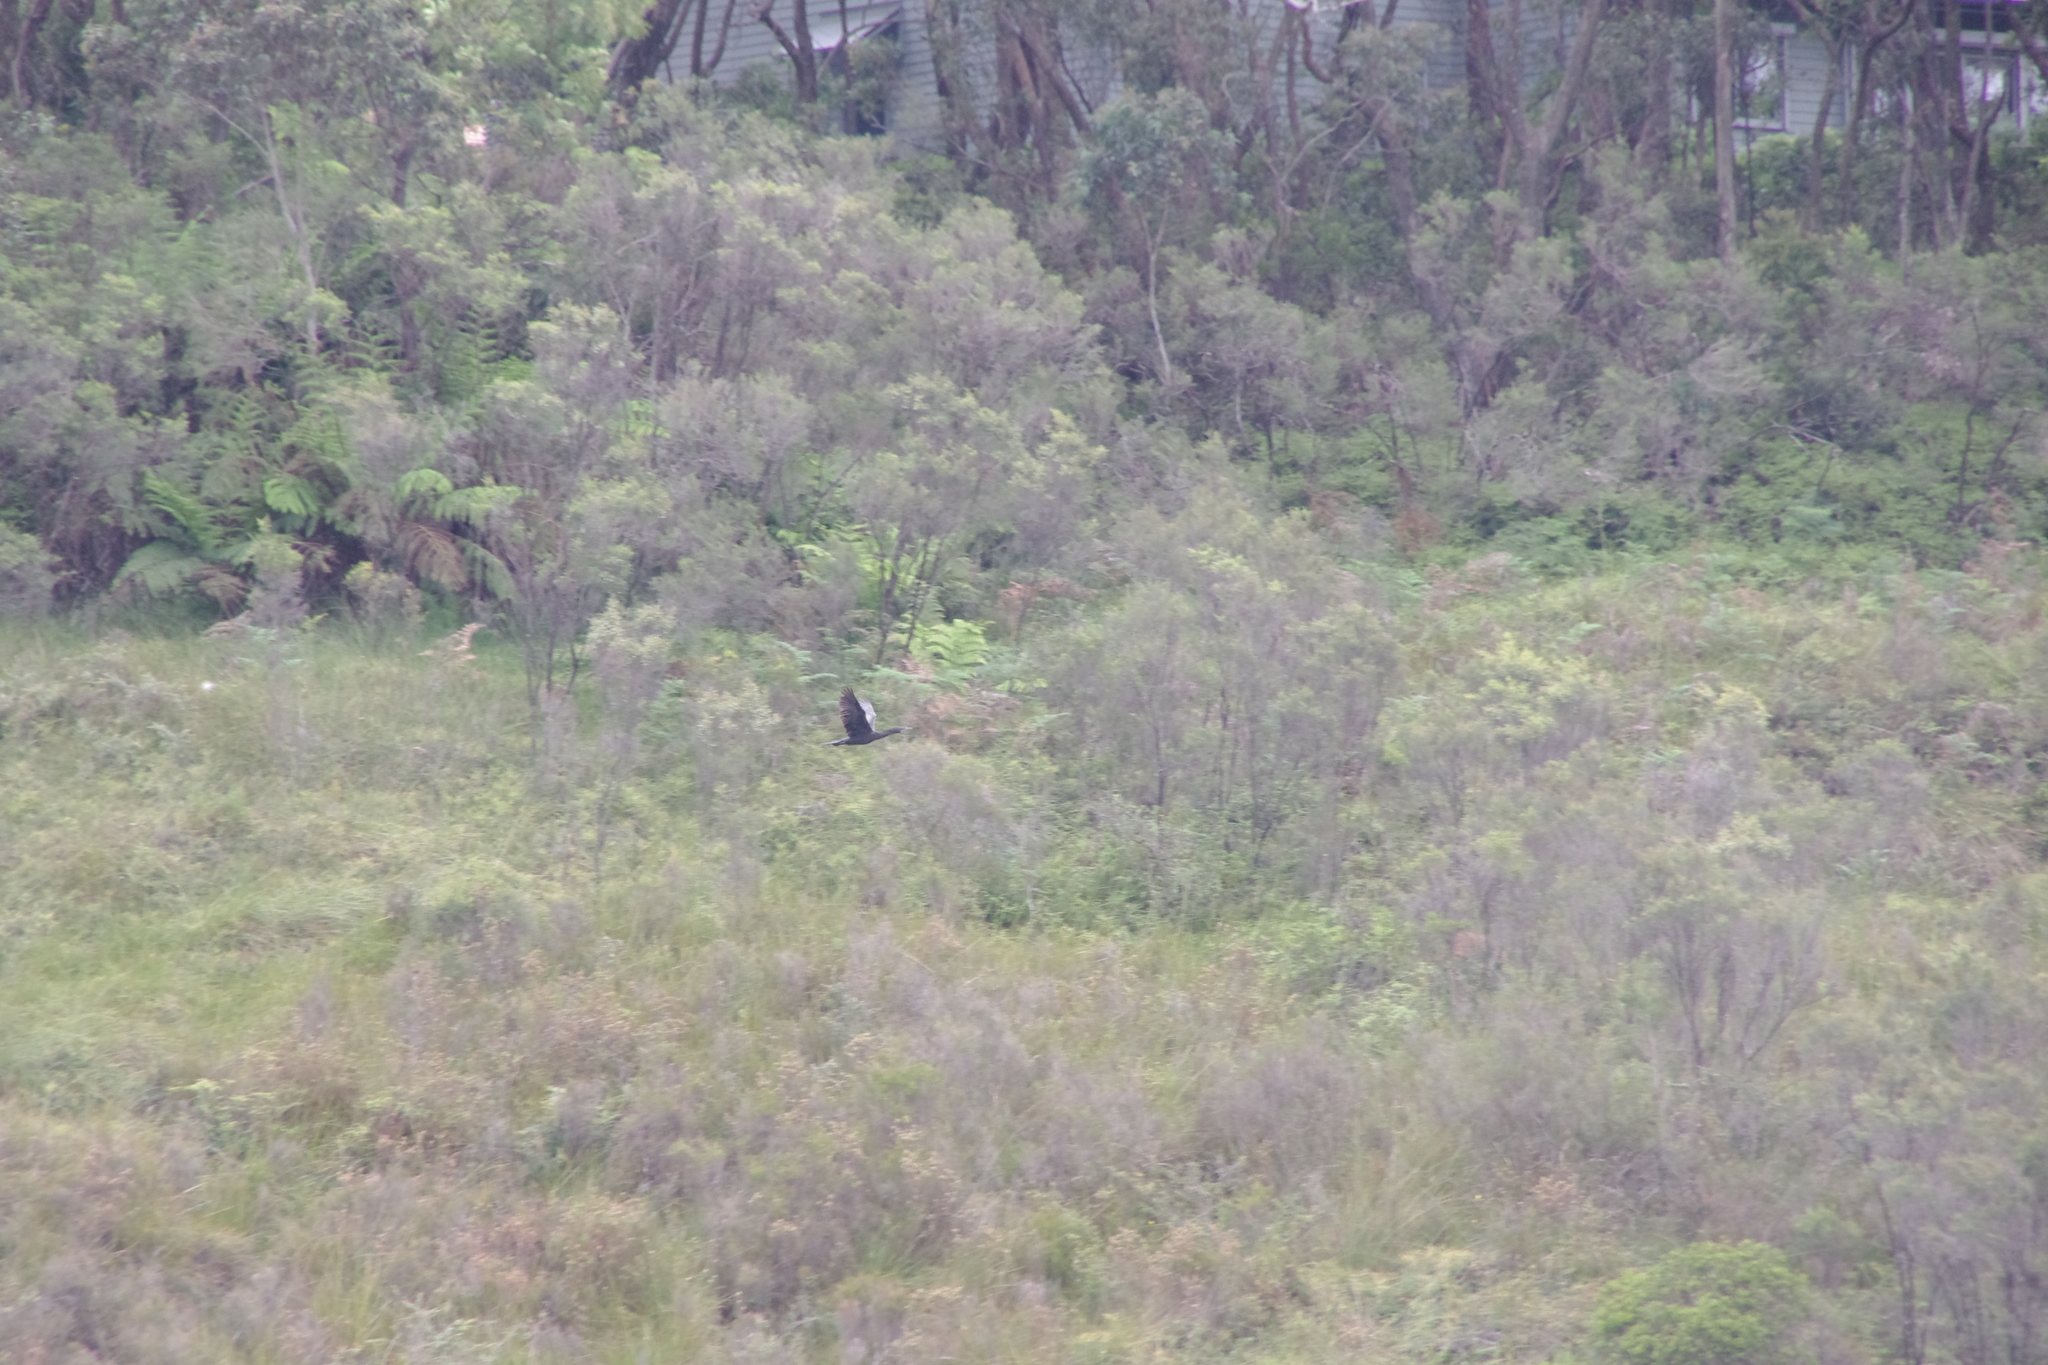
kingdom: Animalia
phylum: Chordata
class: Aves
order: Suliformes
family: Phalacrocoracidae
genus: Phalacrocorax
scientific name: Phalacrocorax sulcirostris
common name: Little black cormorant
